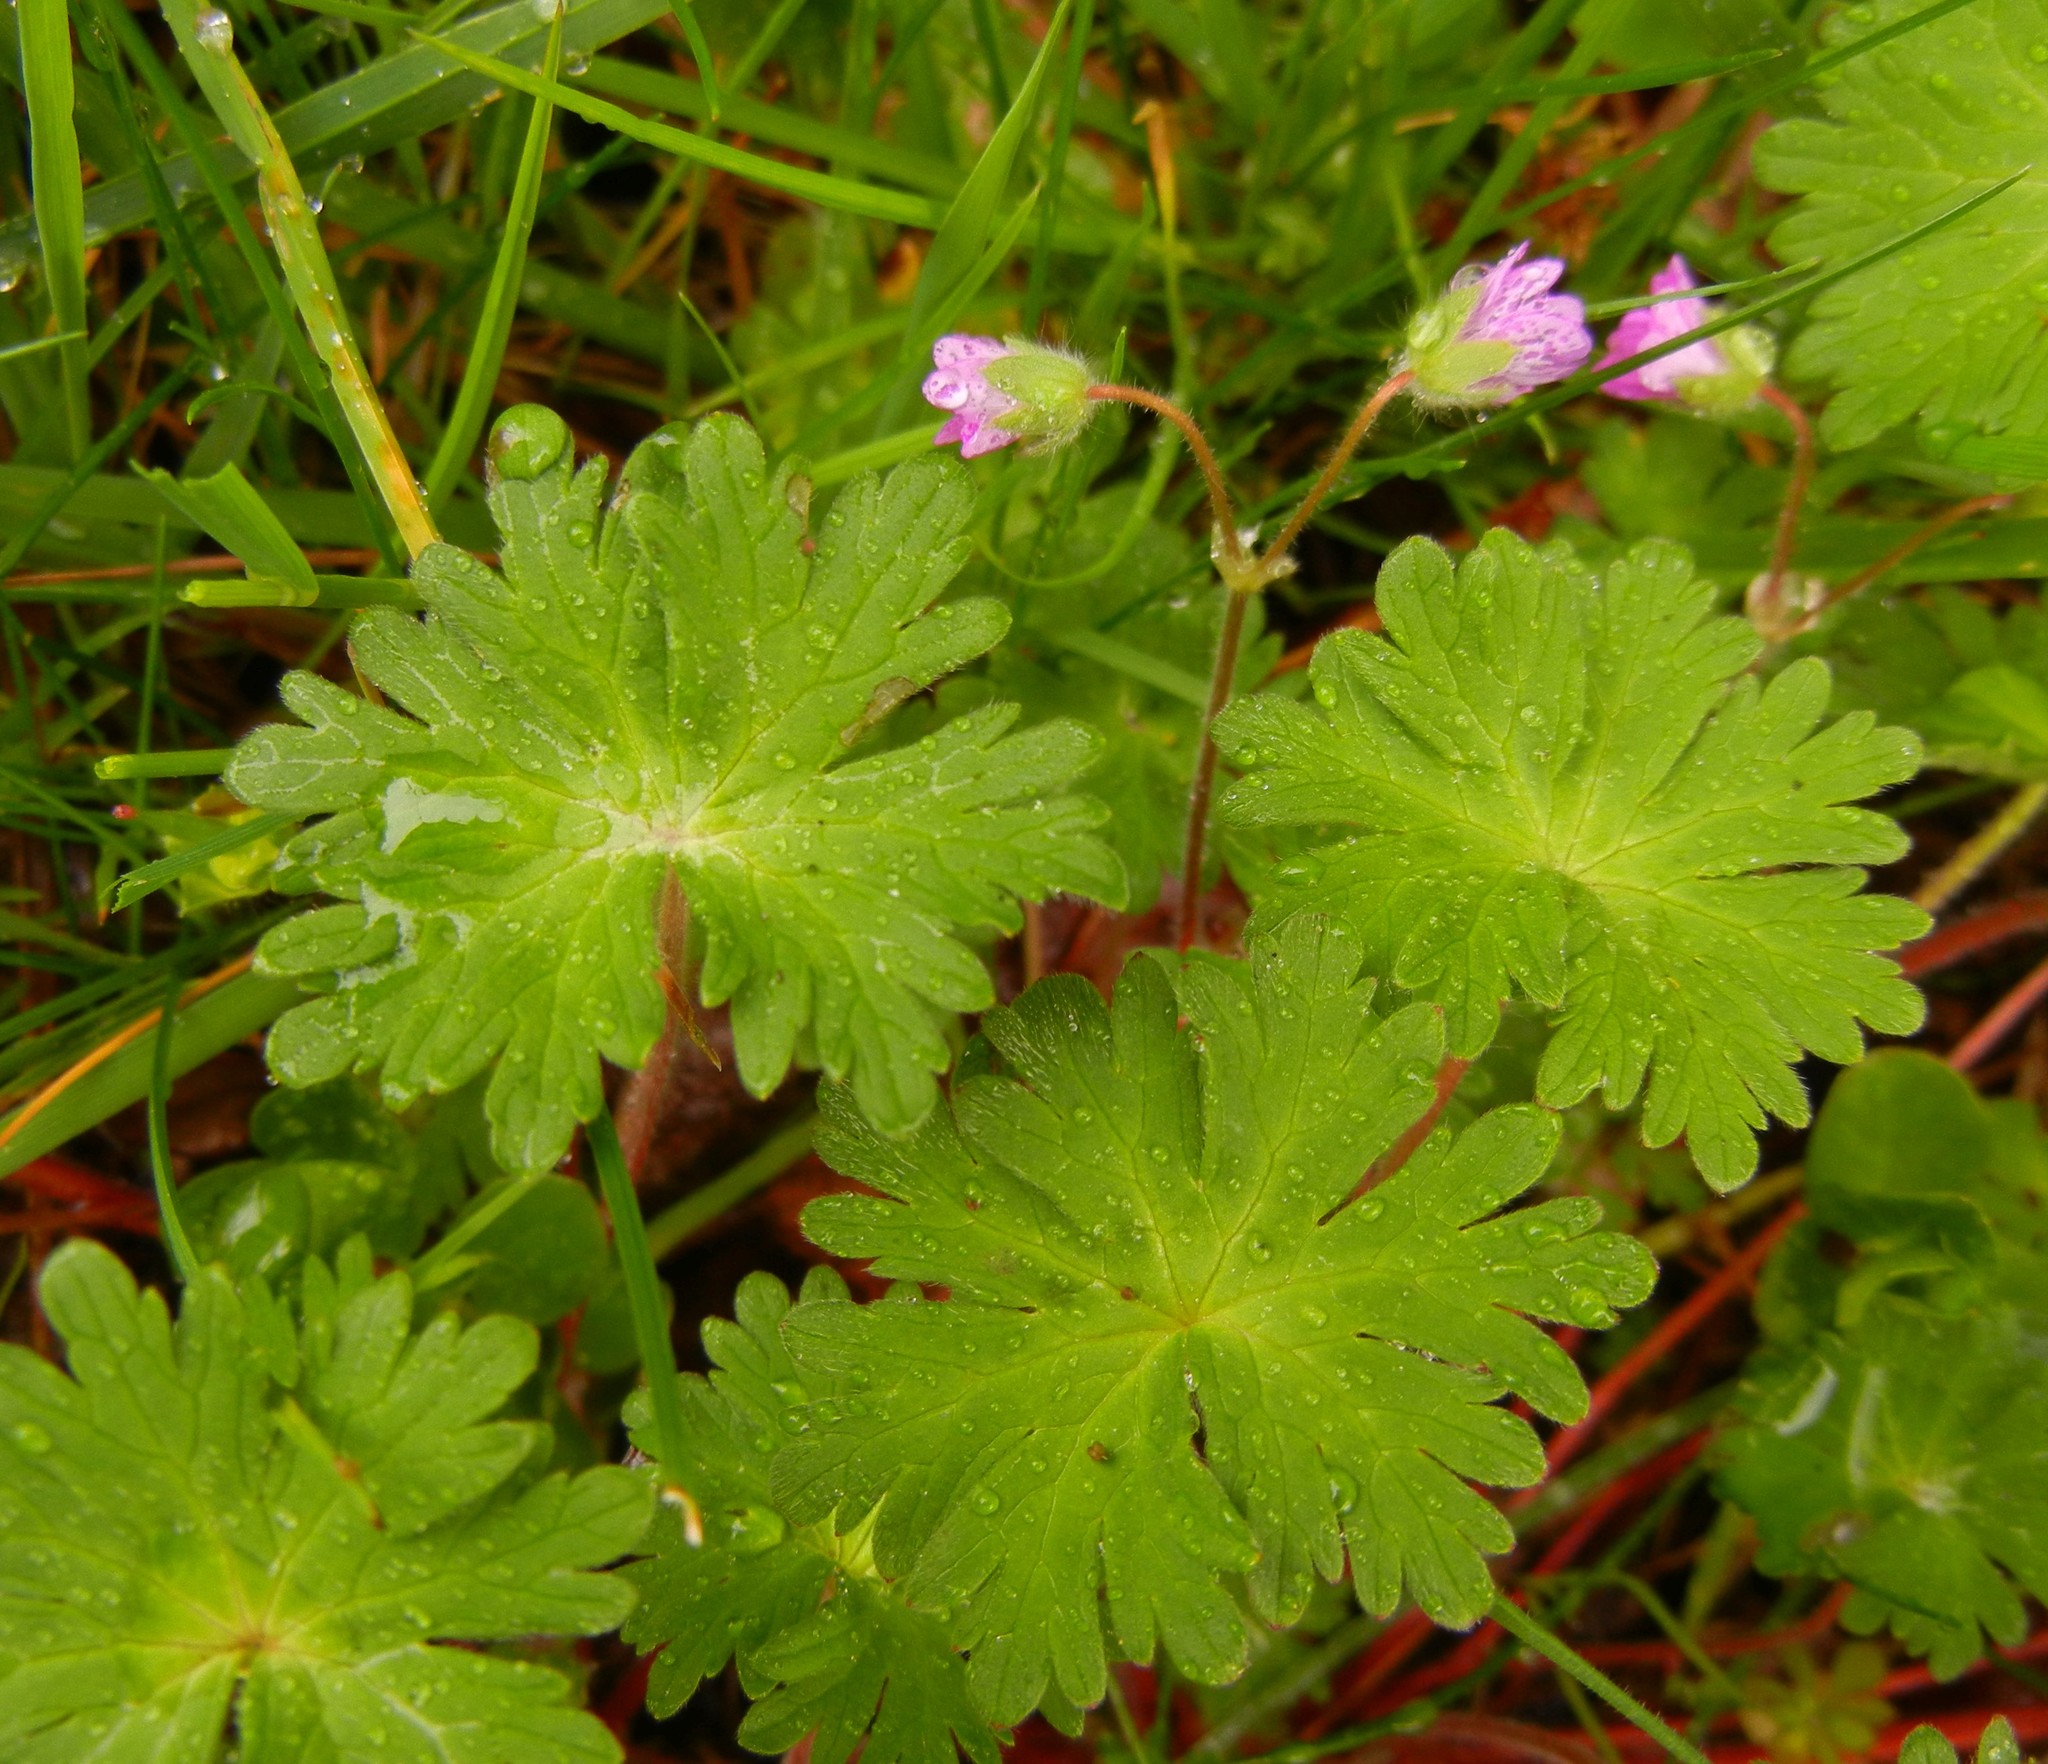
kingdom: Plantae
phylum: Tracheophyta
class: Magnoliopsida
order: Geraniales
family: Geraniaceae
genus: Geranium
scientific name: Geranium molle
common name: Dove's-foot crane's-bill
